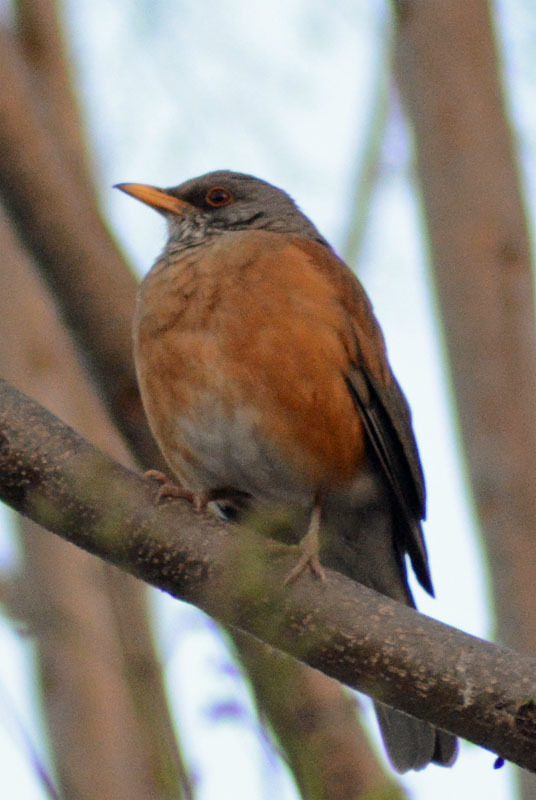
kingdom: Animalia
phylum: Chordata
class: Aves
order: Passeriformes
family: Turdidae
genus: Turdus
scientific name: Turdus rufopalliatus
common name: Rufous-backed robin
